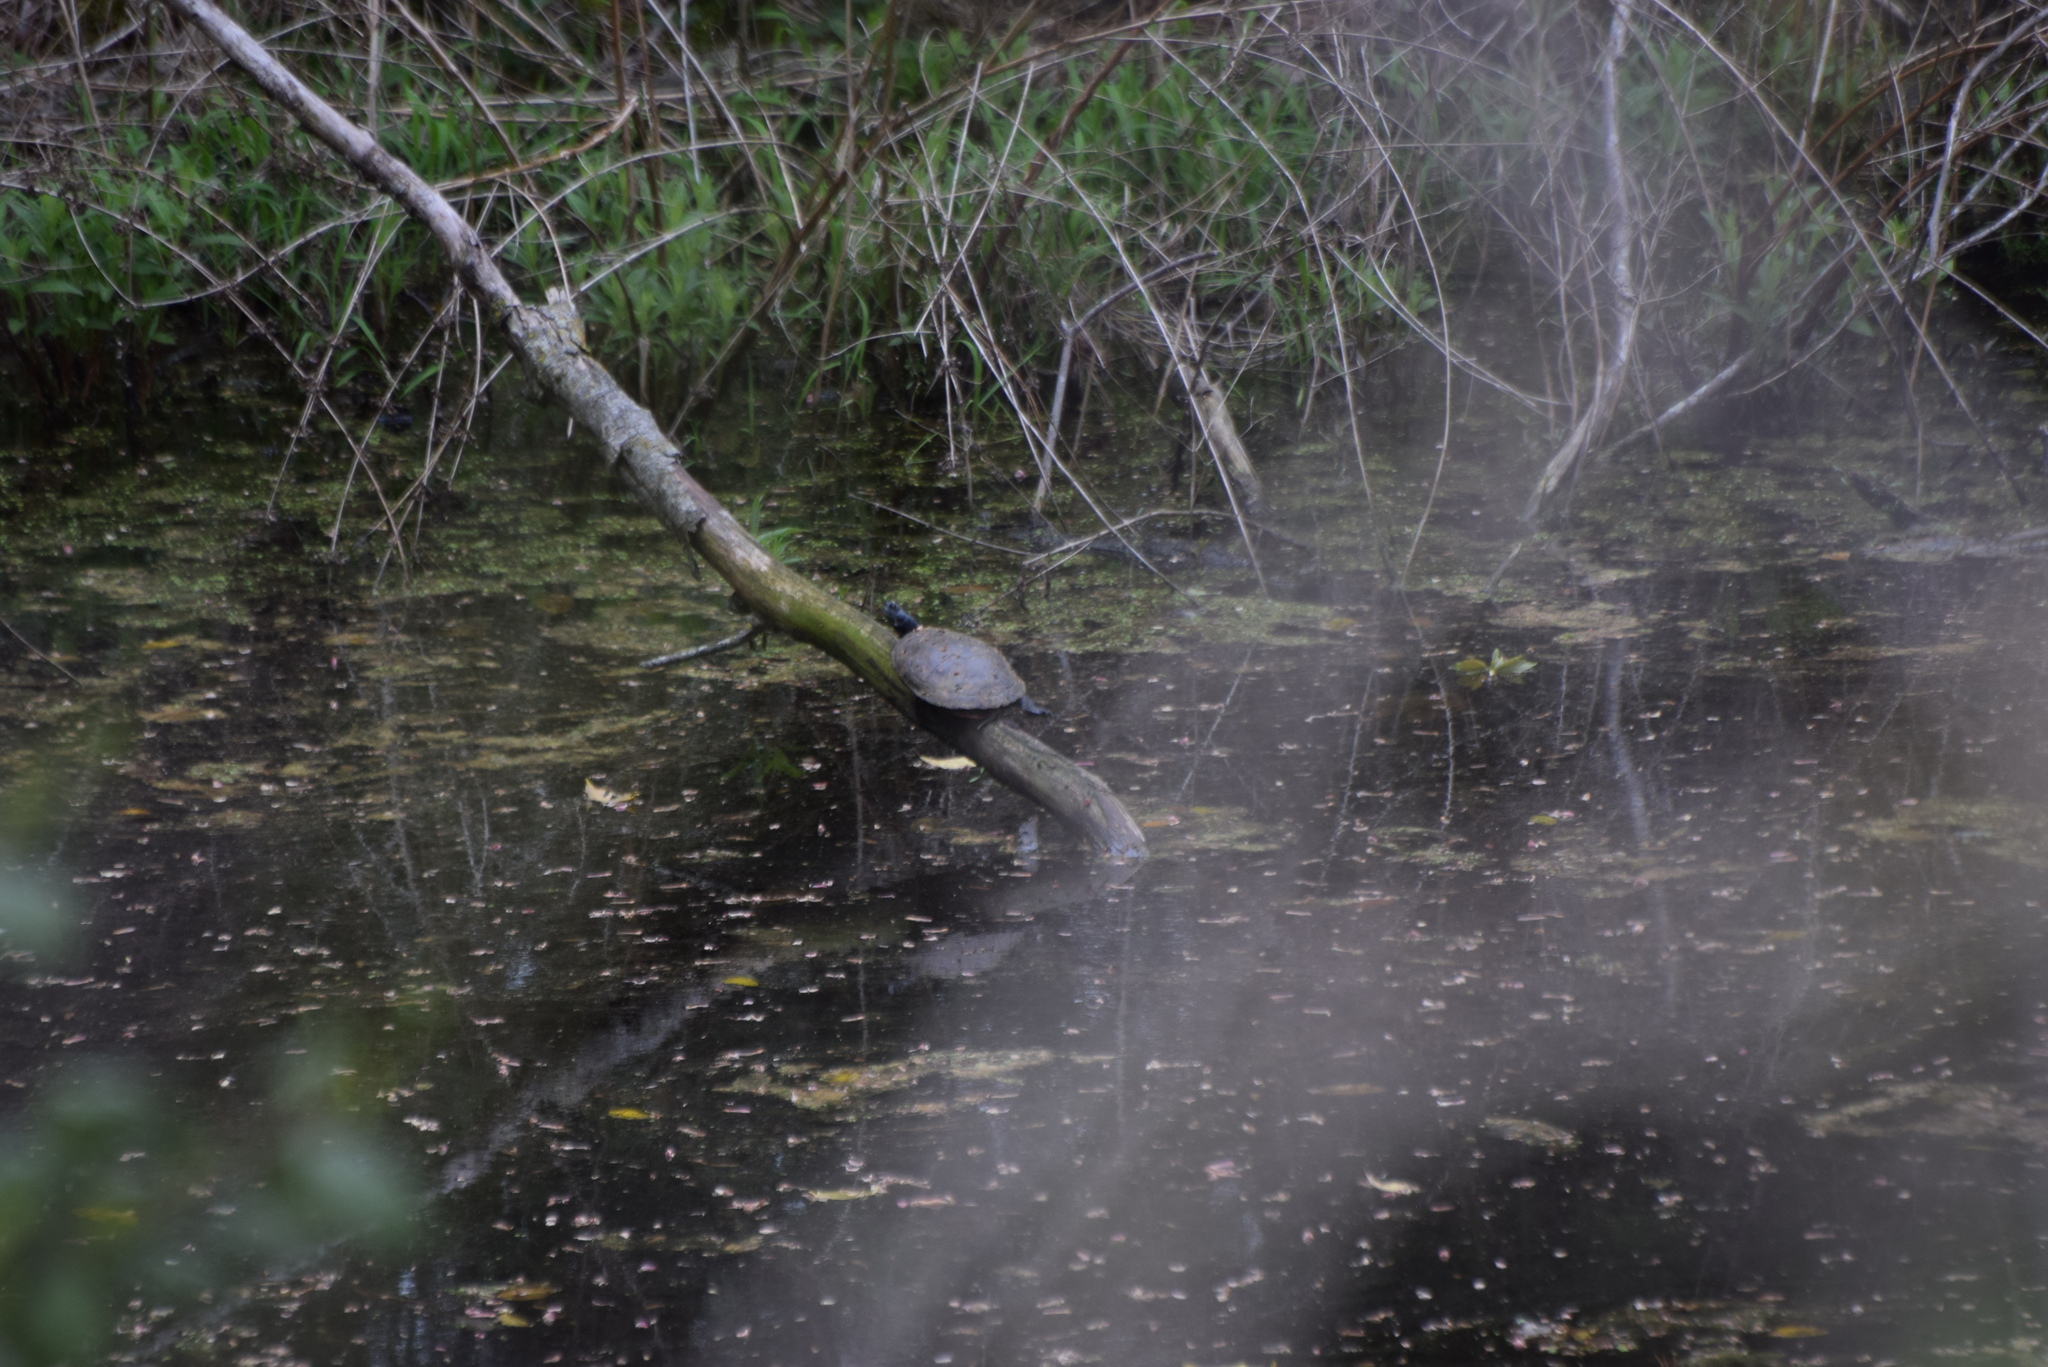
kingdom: Animalia
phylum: Chordata
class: Testudines
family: Emydidae
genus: Pseudemys
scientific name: Pseudemys rubriventris
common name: American red-bellied turtle
